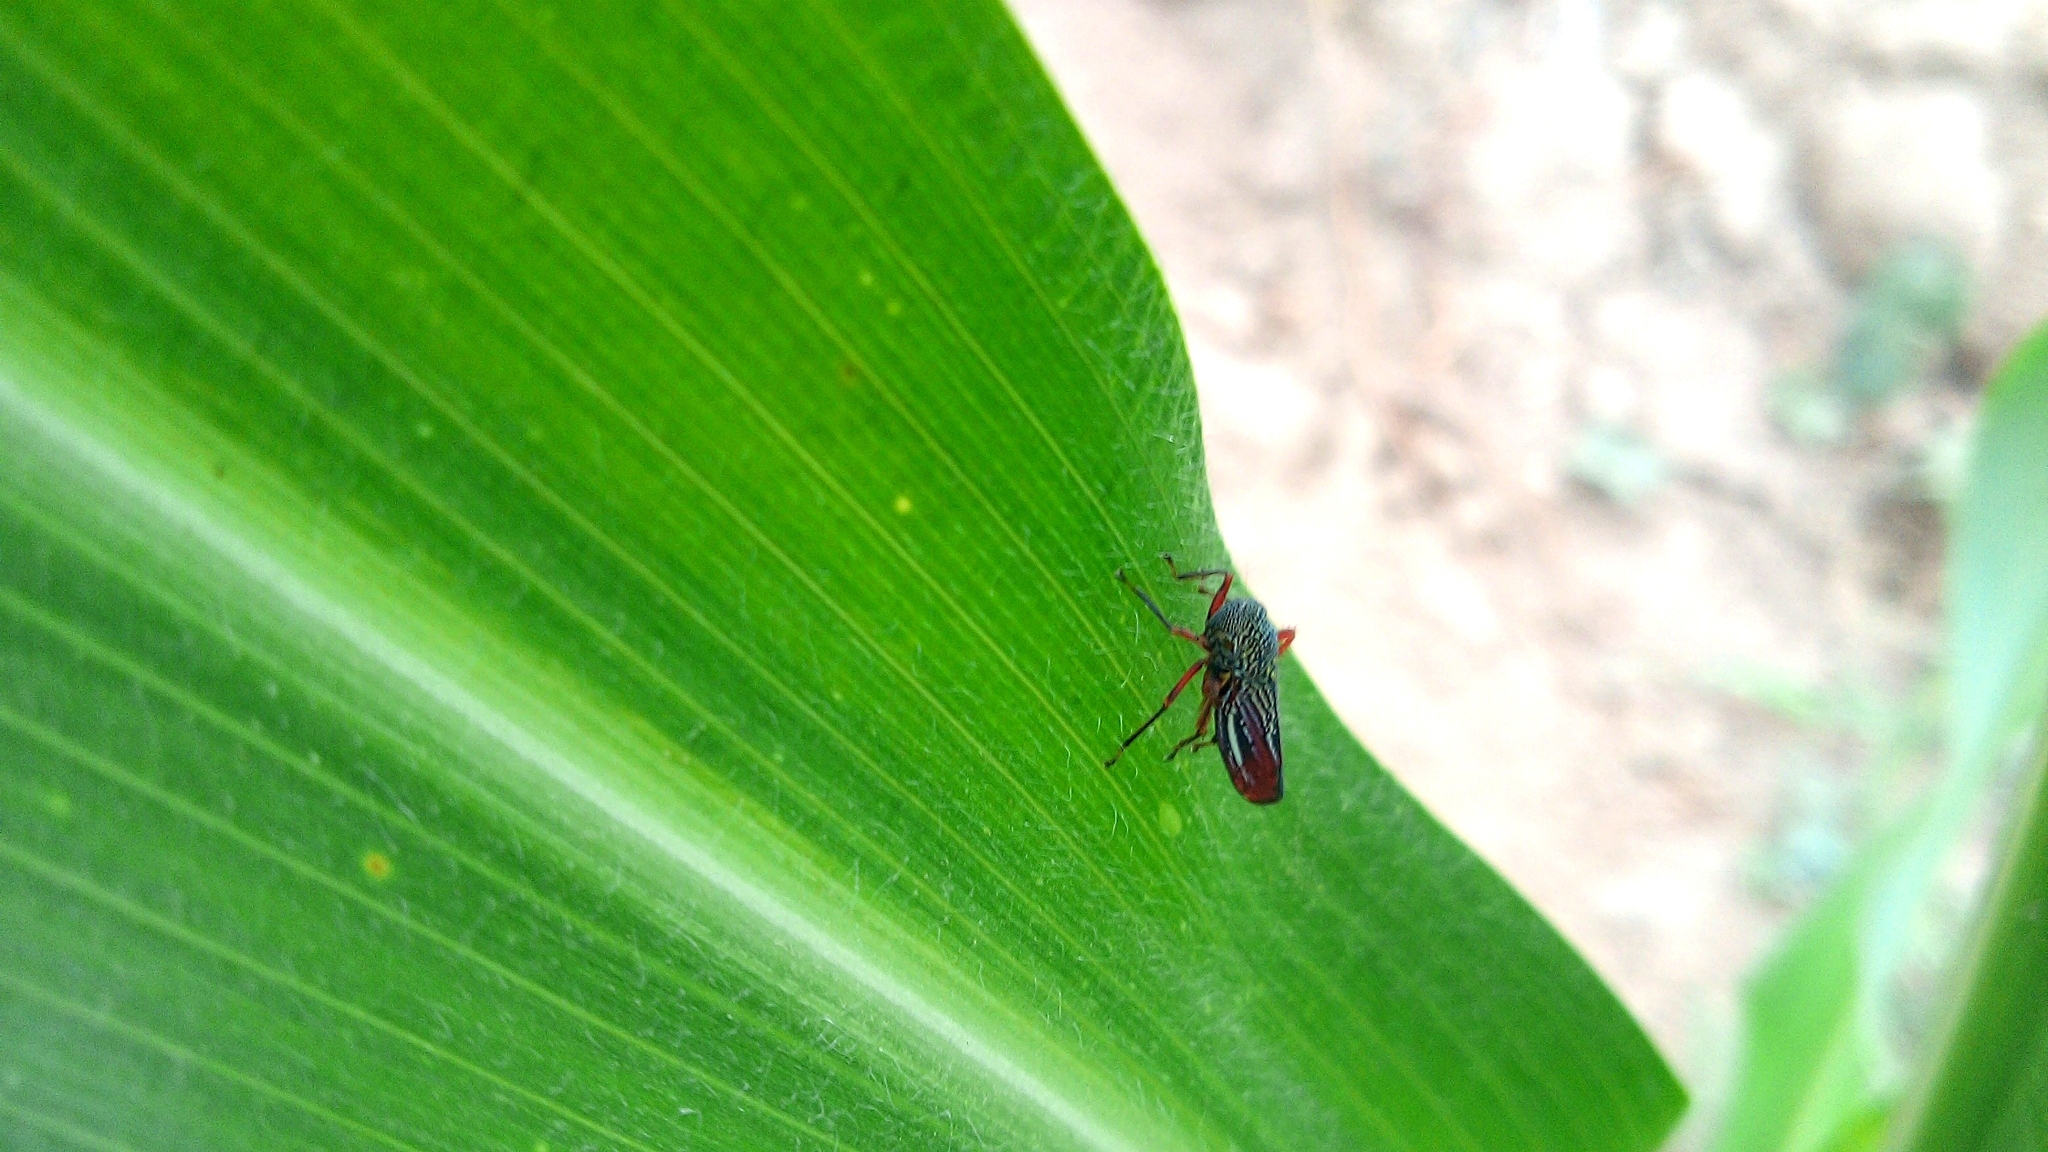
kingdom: Animalia
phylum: Arthropoda
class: Insecta
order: Hemiptera
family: Cicadellidae
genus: Apogonalia
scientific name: Apogonalia krameri
